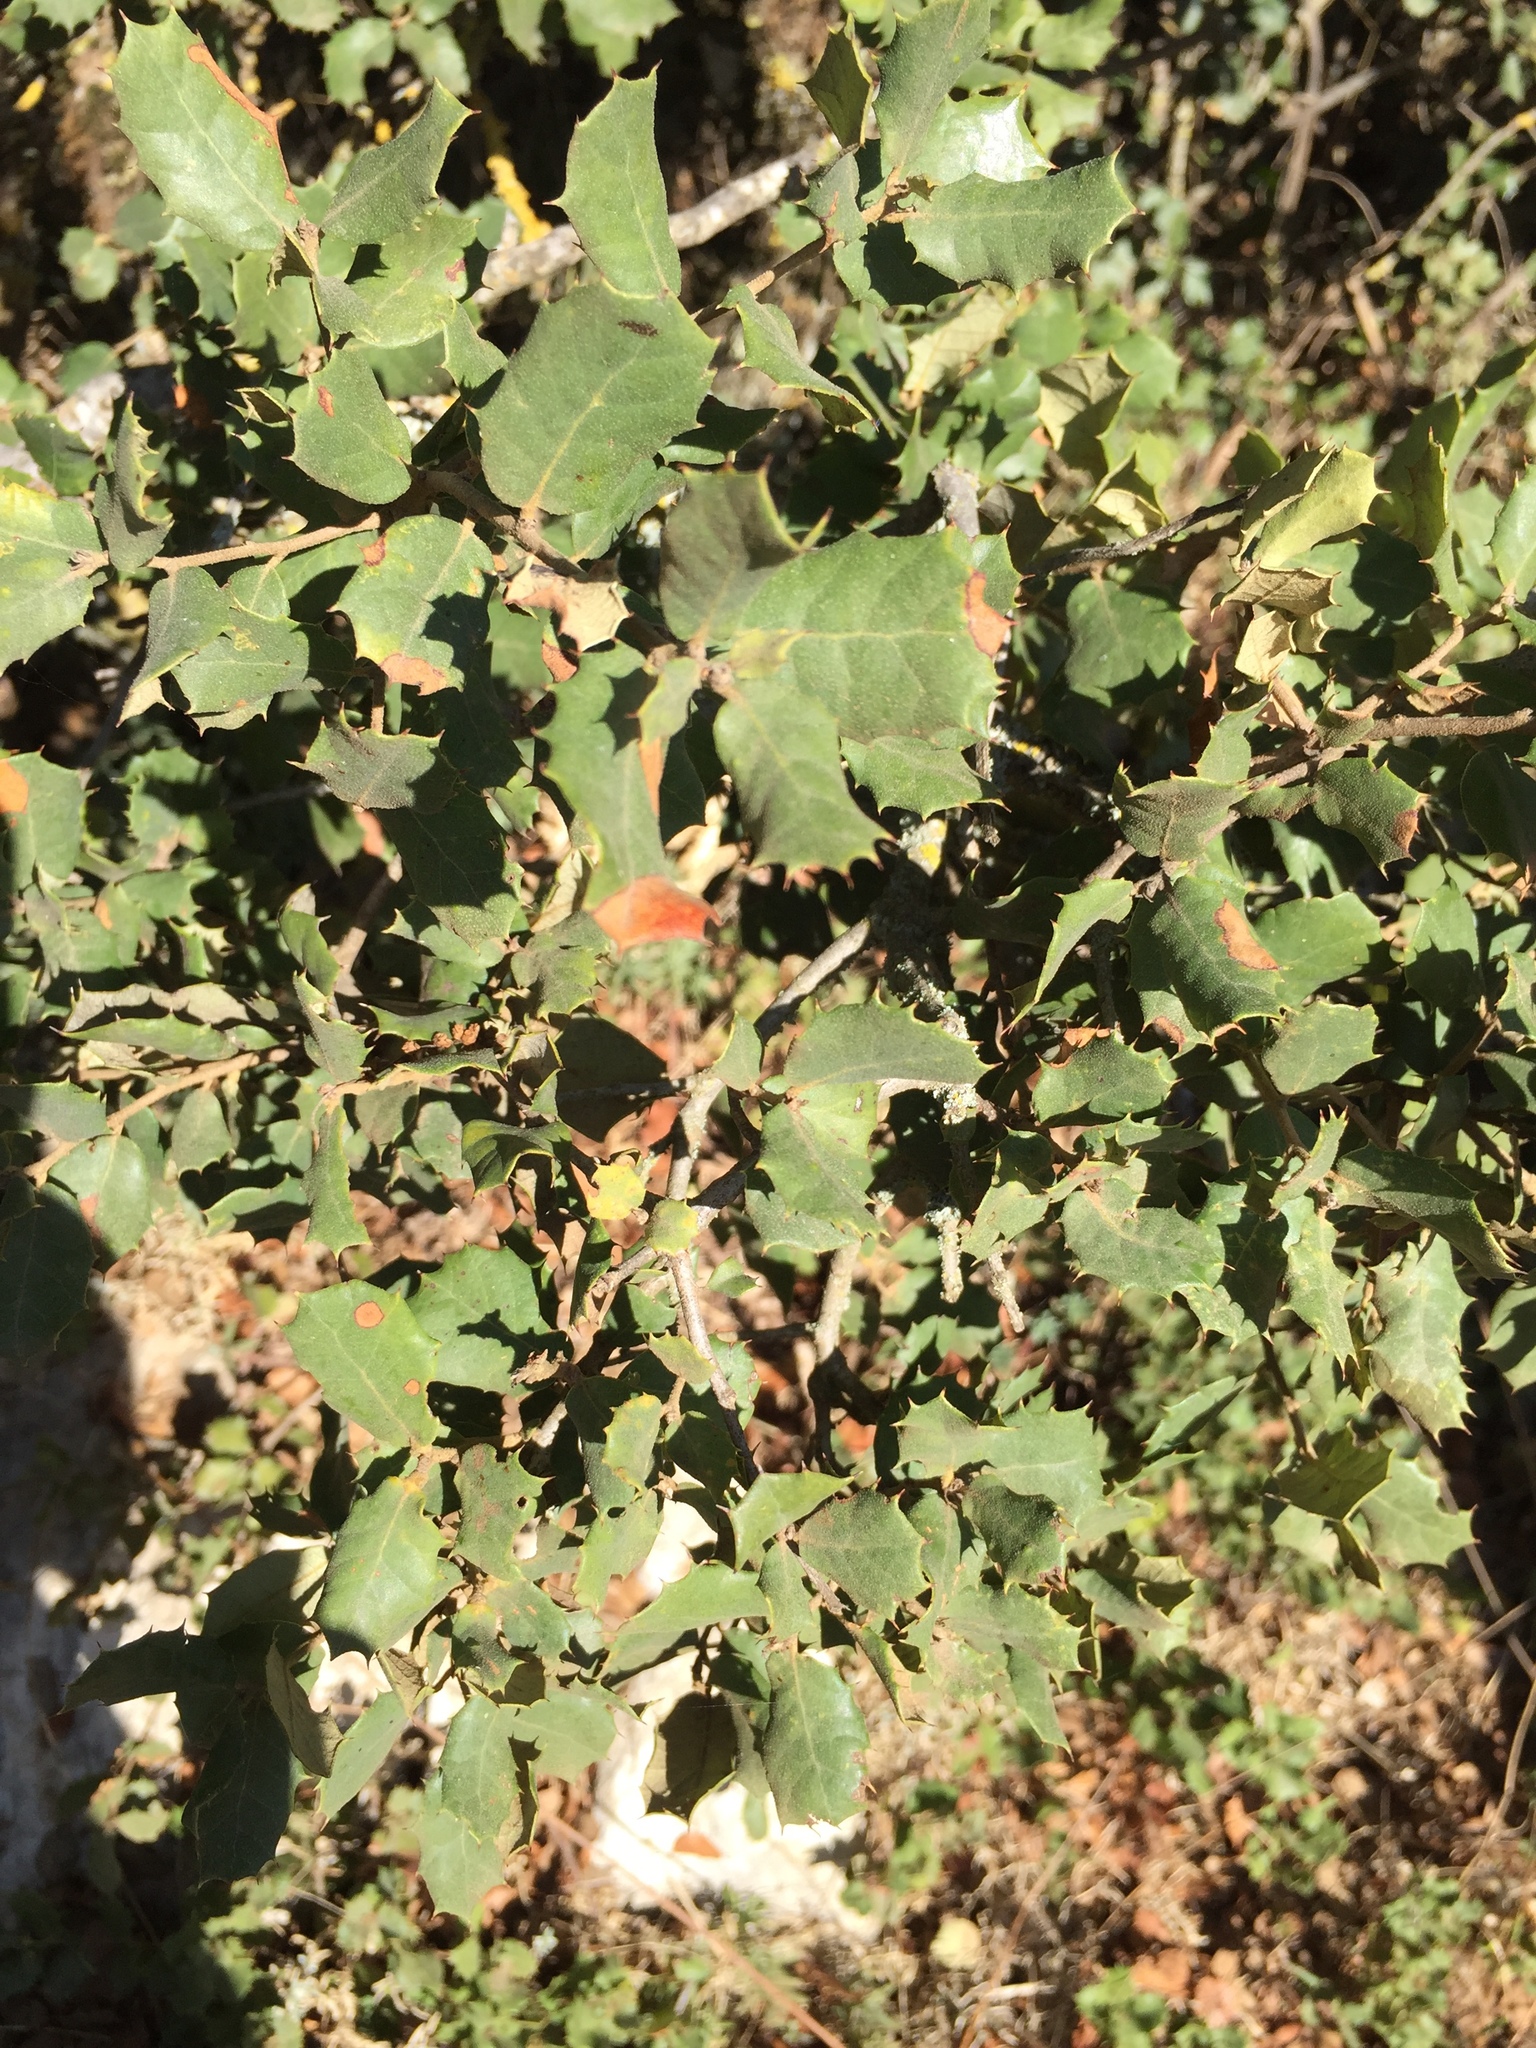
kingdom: Plantae
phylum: Tracheophyta
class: Magnoliopsida
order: Fagales
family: Fagaceae
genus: Quercus
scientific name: Quercus rotundifolia
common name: Holm oak
